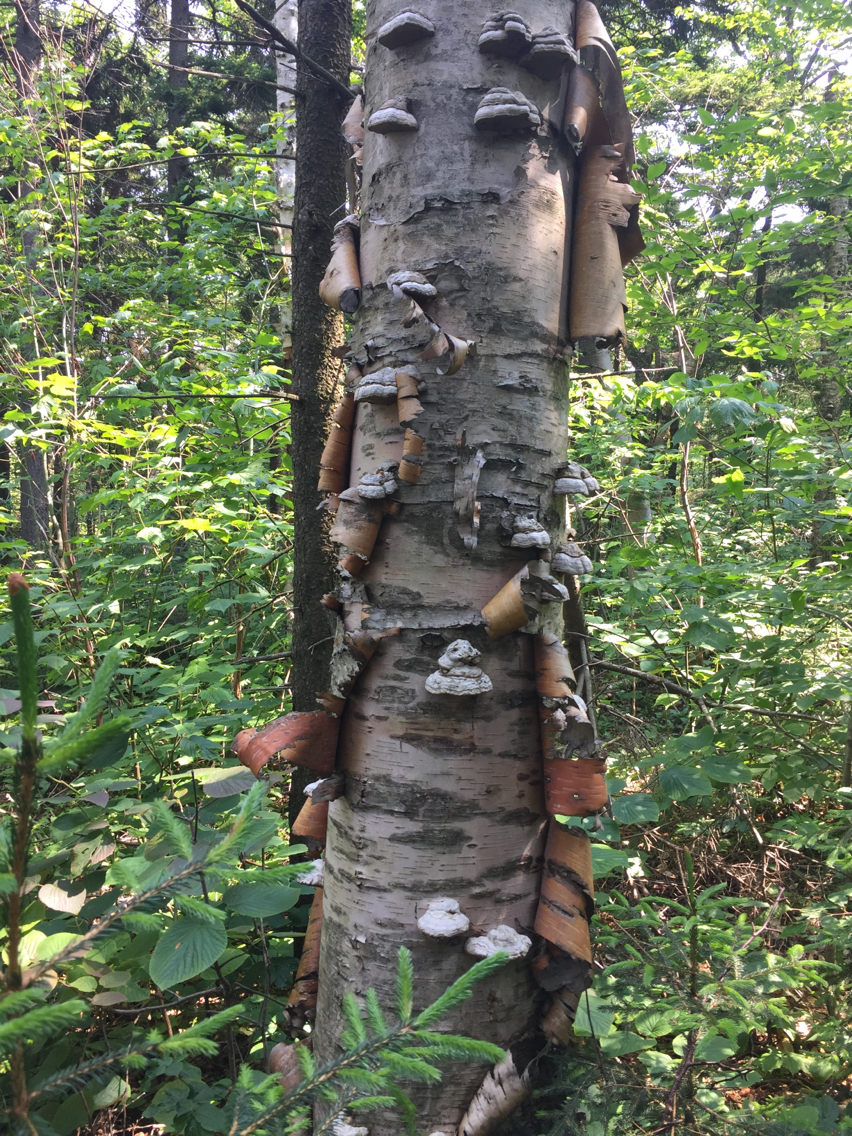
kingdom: Plantae
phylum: Tracheophyta
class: Magnoliopsida
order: Fagales
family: Betulaceae
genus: Betula
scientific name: Betula cordifolia
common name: Mountain white birch
